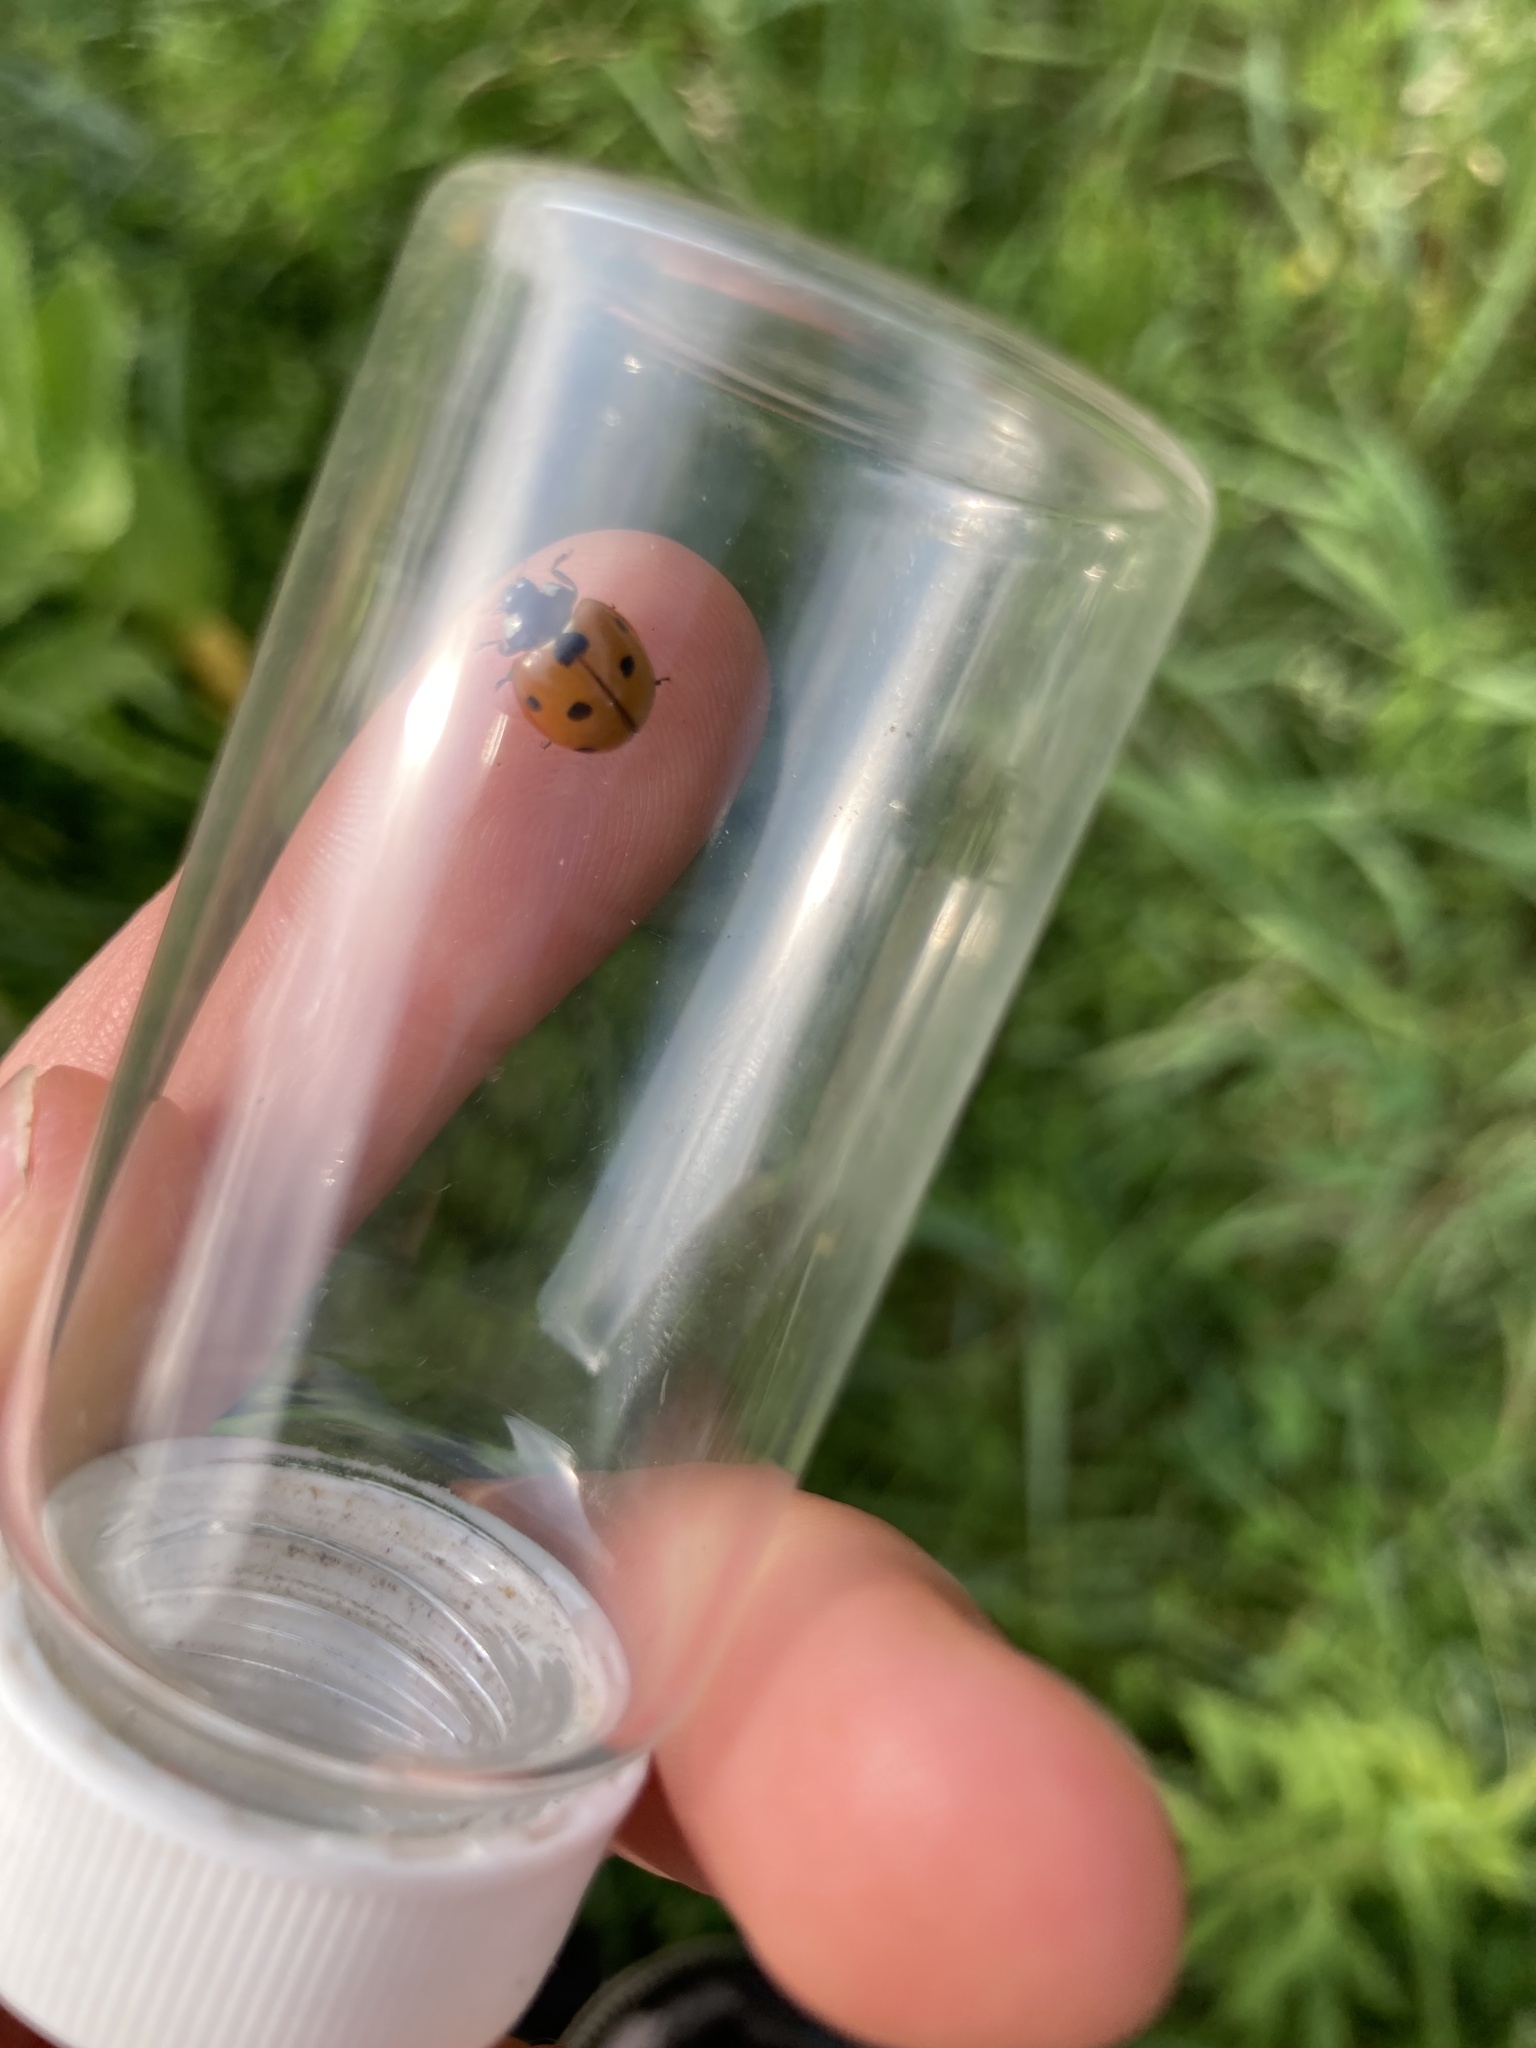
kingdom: Animalia
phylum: Arthropoda
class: Insecta
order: Coleoptera
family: Coccinellidae
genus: Coccinella
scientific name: Coccinella septempunctata
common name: Sevenspotted lady beetle
